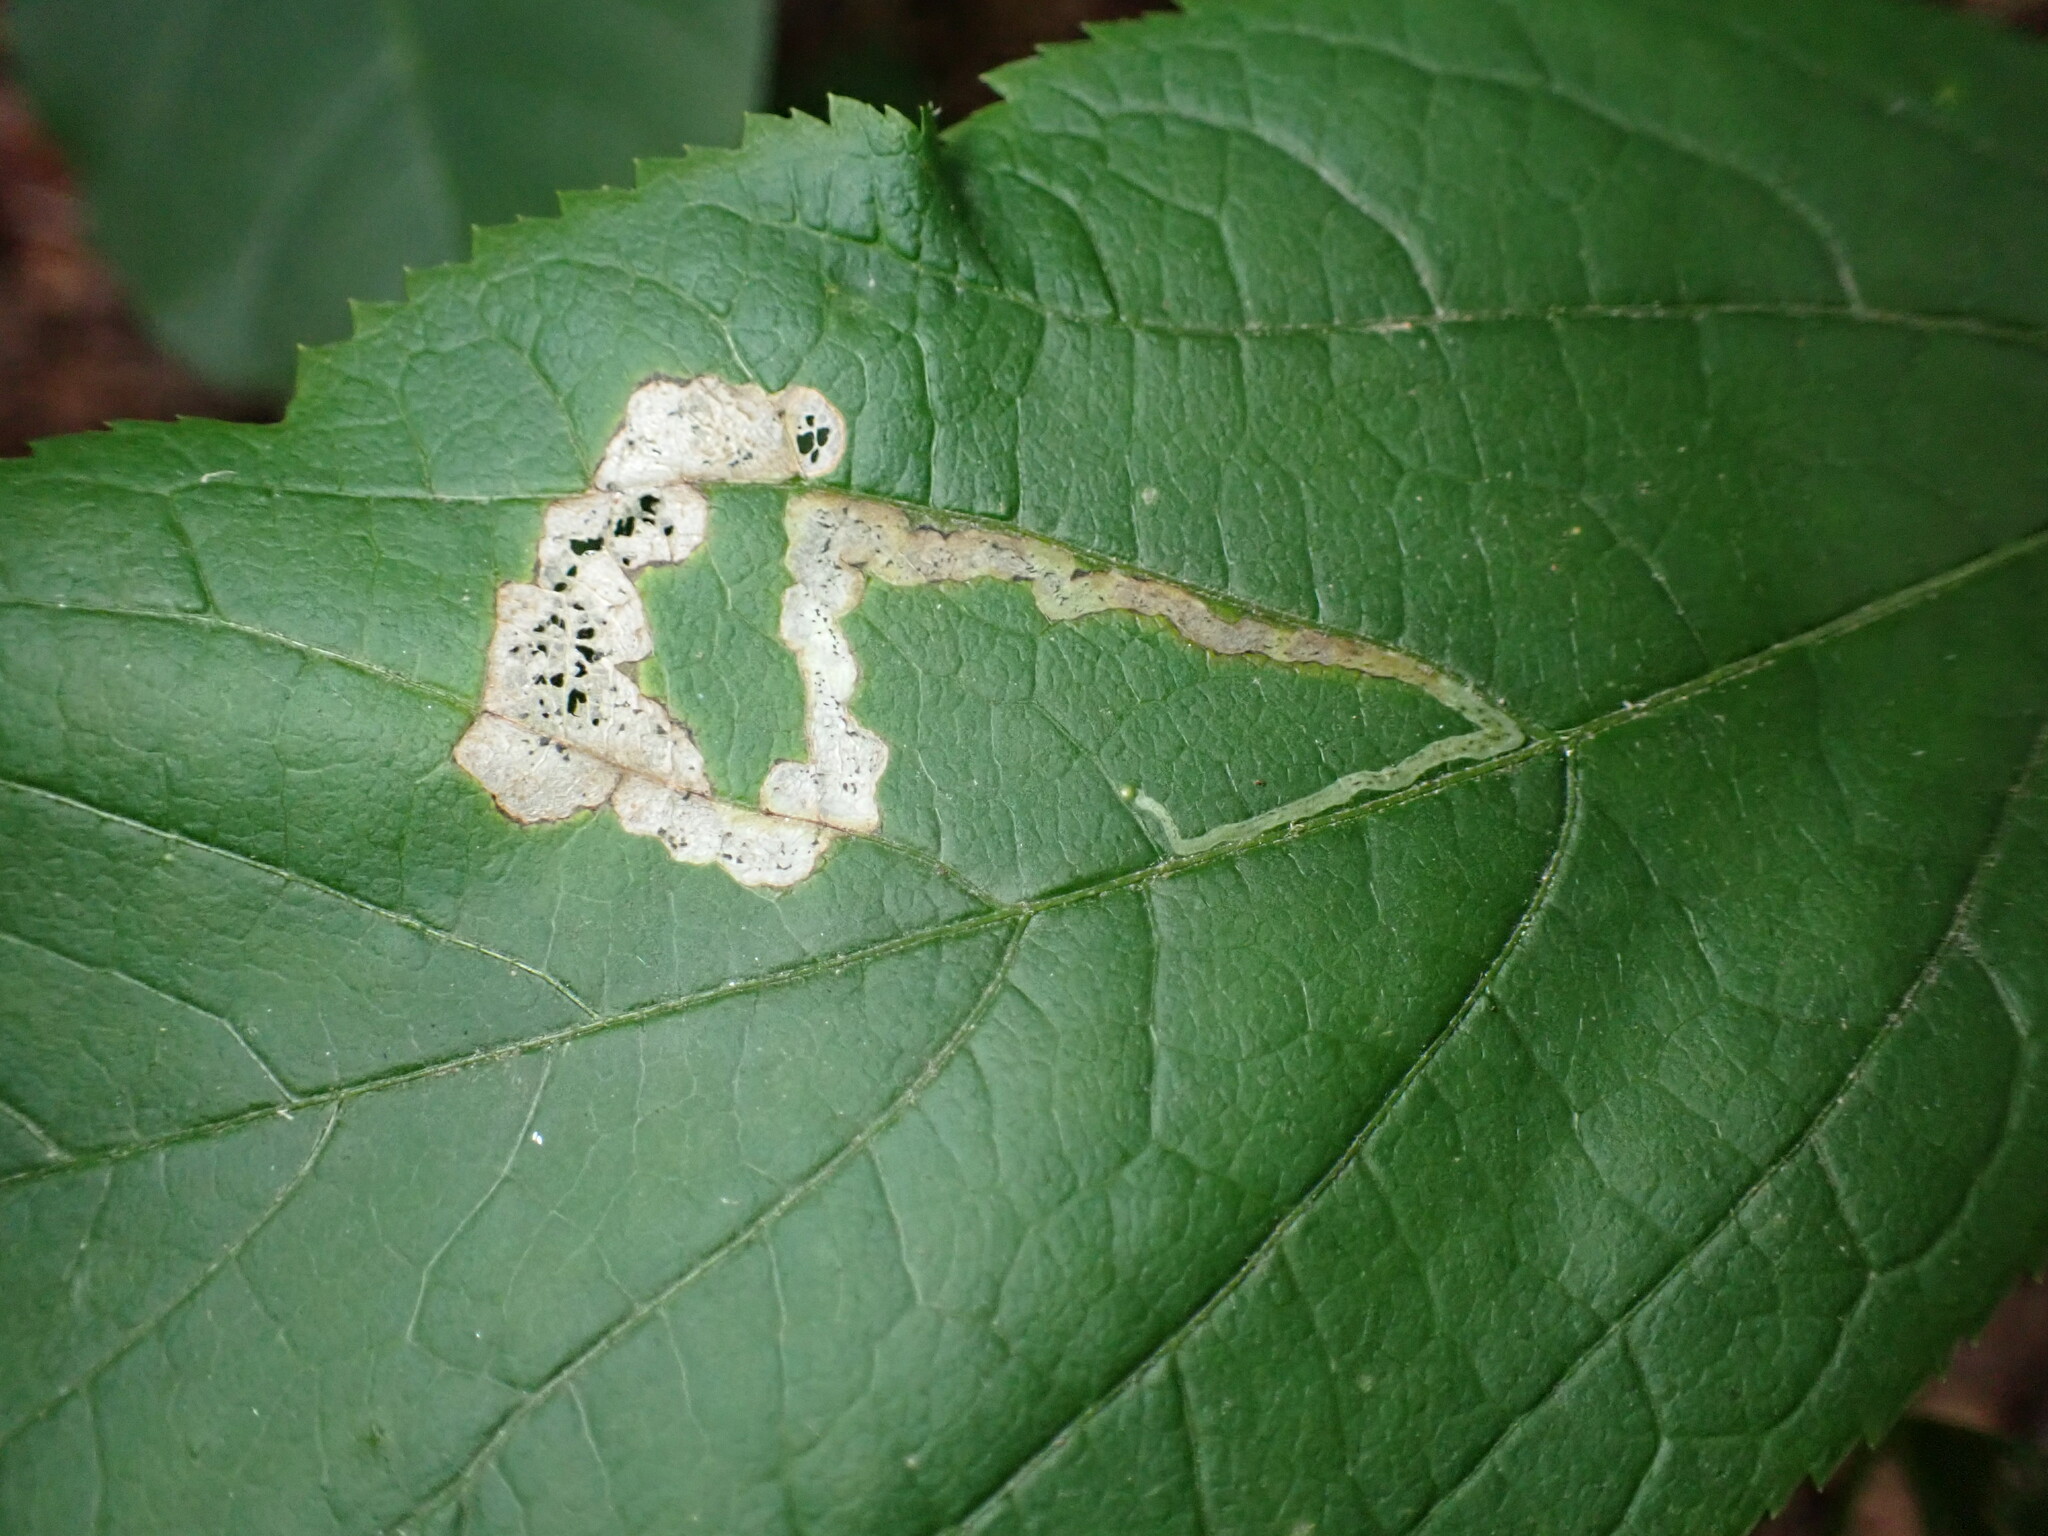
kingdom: Animalia
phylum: Arthropoda
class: Insecta
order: Diptera
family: Agromyzidae
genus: Phytomyza
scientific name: Phytomyza aralivora
